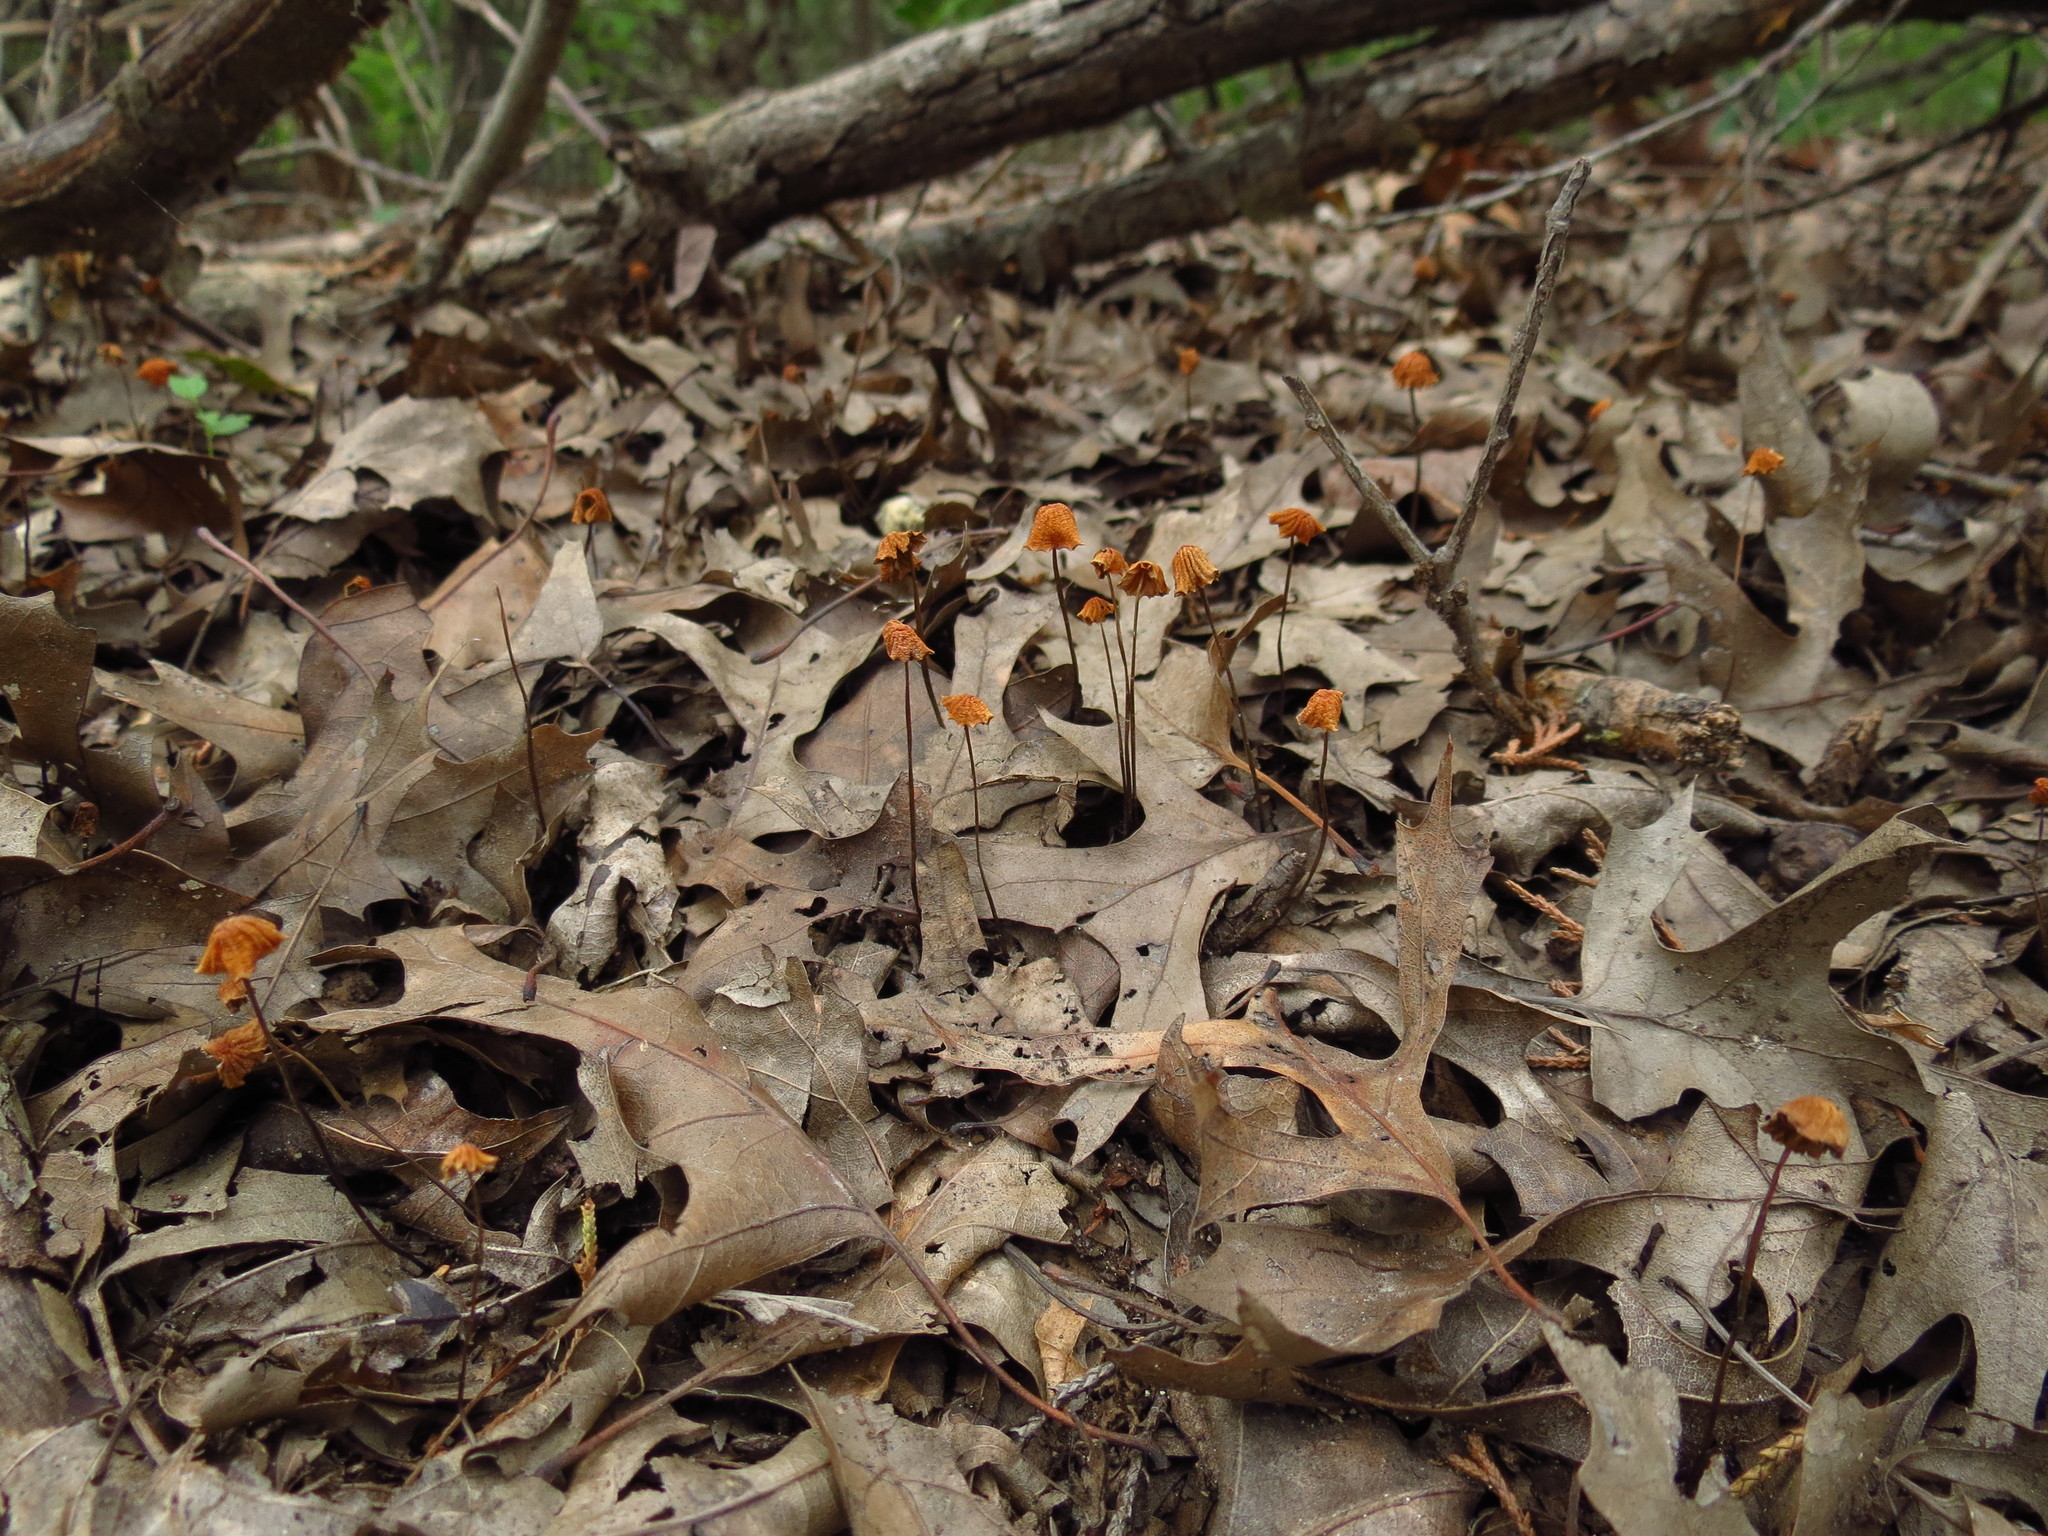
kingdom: Fungi
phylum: Basidiomycota
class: Agaricomycetes
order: Agaricales
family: Marasmiaceae
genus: Marasmius
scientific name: Marasmius siccus
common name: Orange pinwheel
